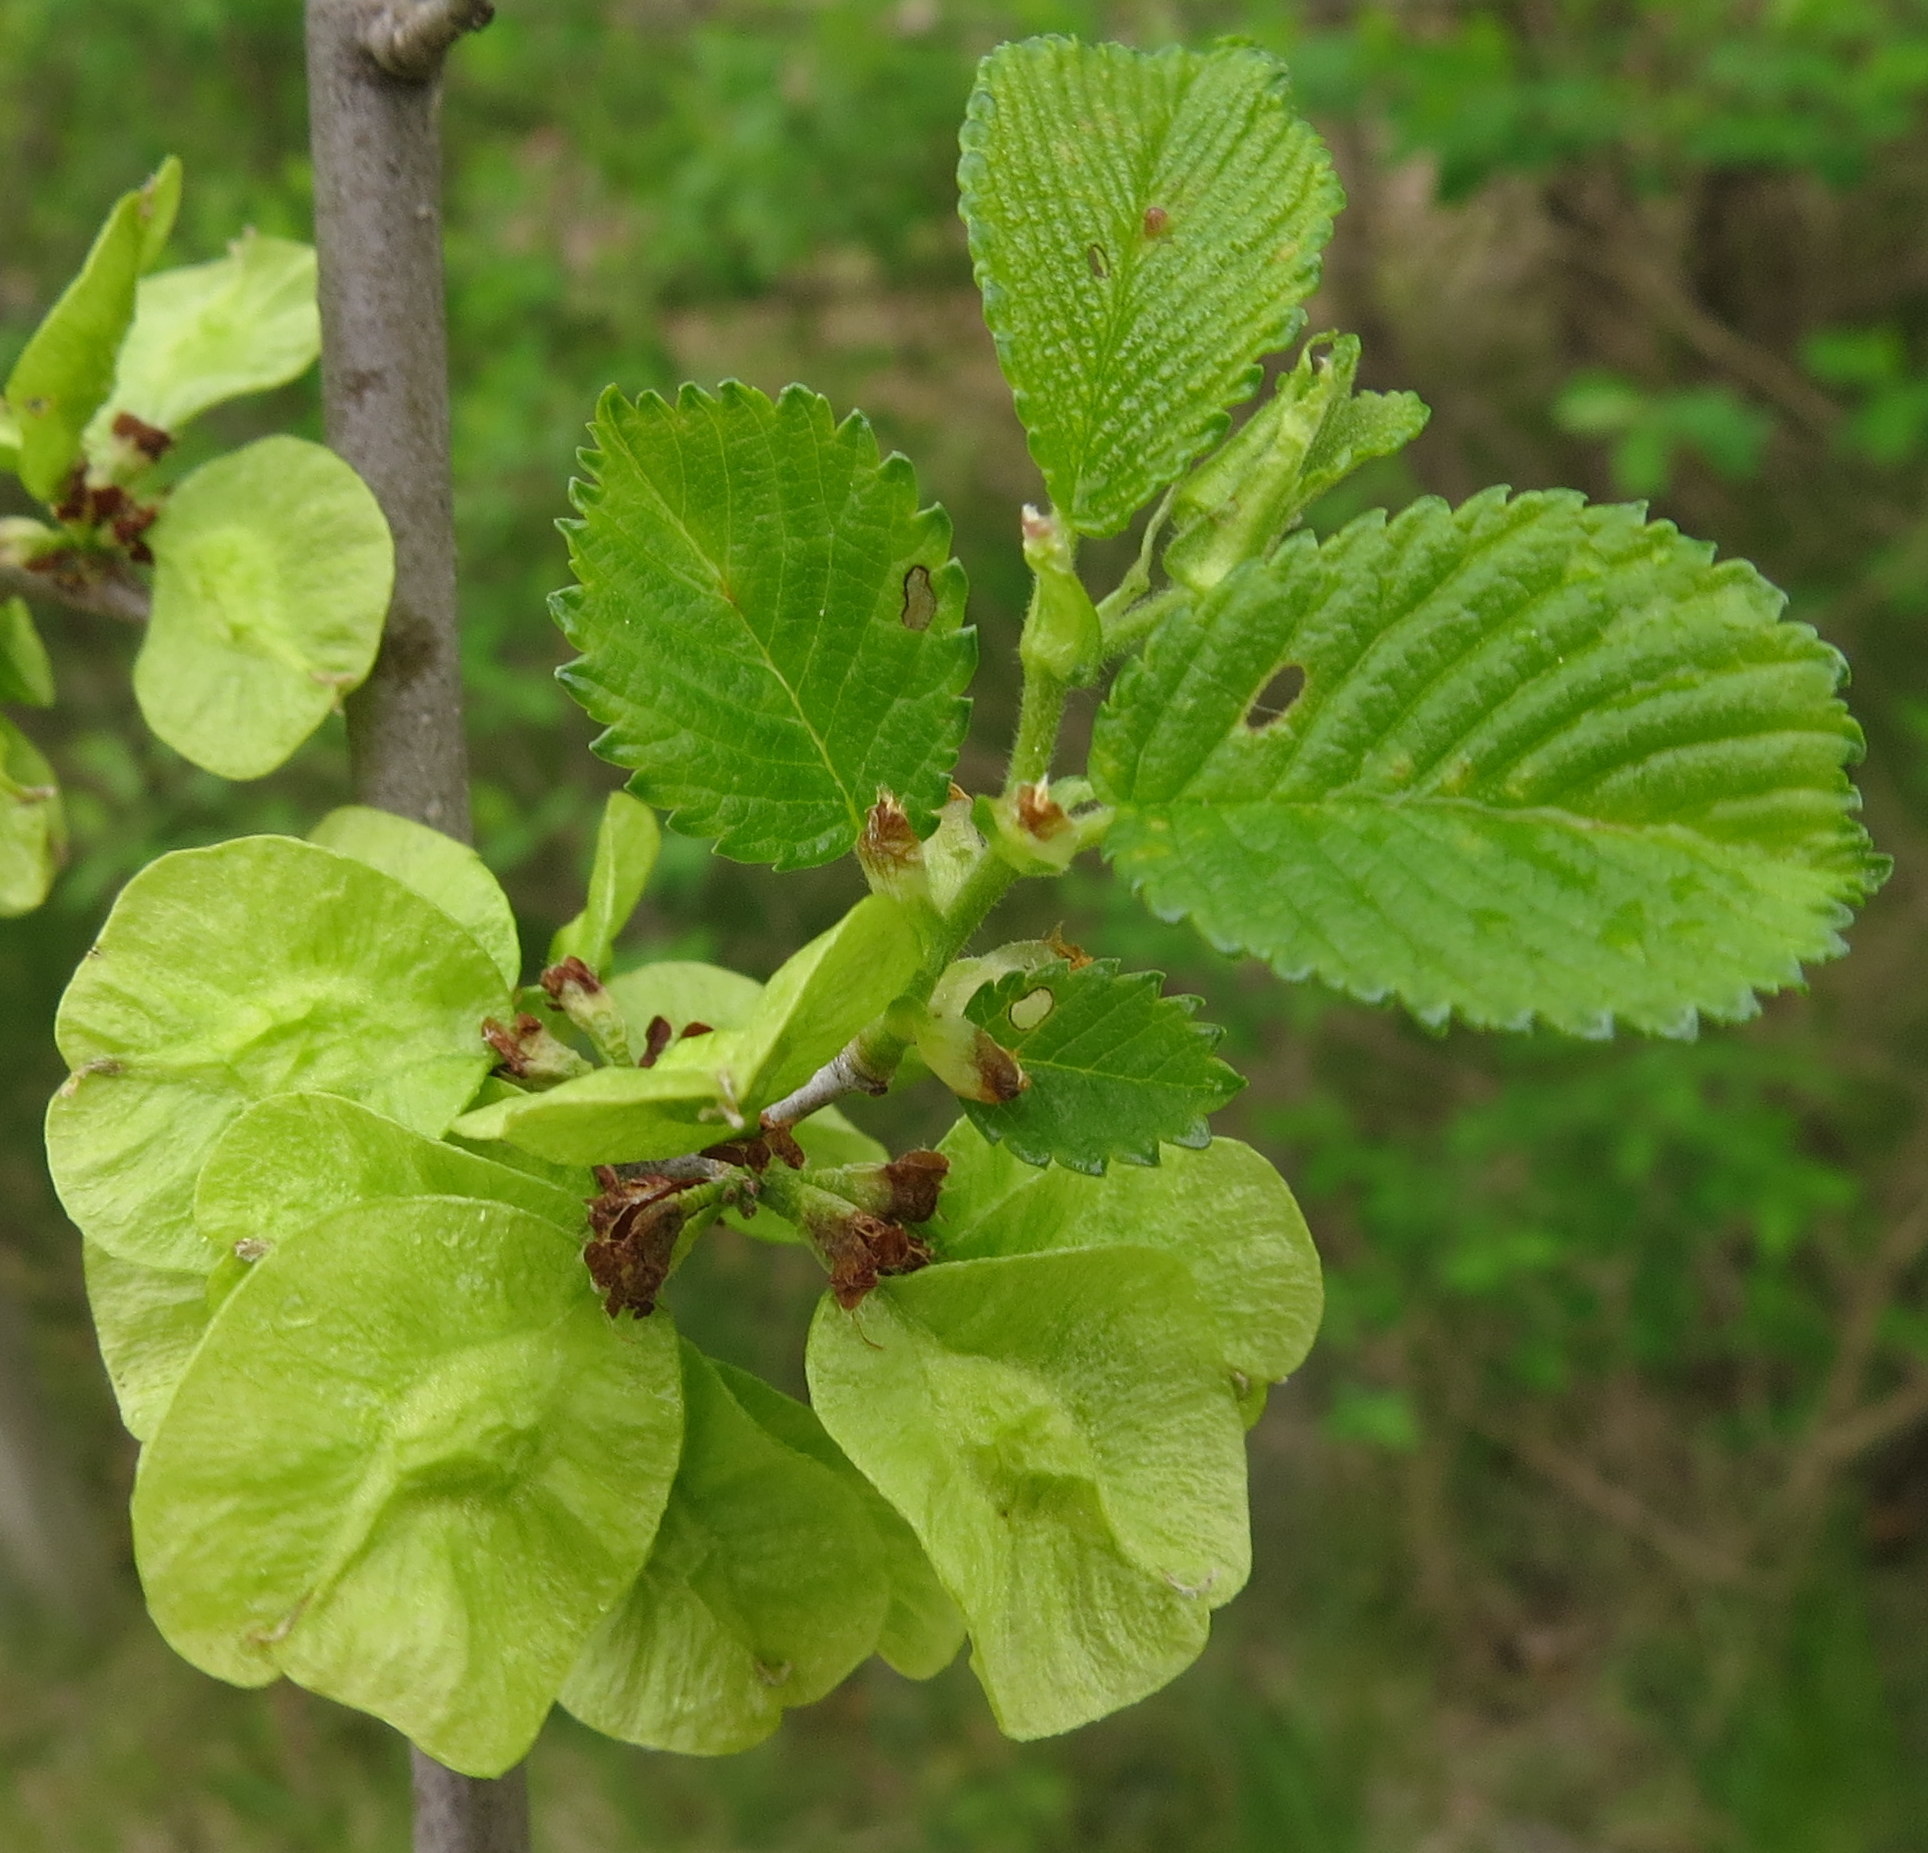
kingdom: Plantae
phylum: Tracheophyta
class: Magnoliopsida
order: Rosales
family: Ulmaceae
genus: Ulmus
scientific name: Ulmus rubra
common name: Slippery elm
